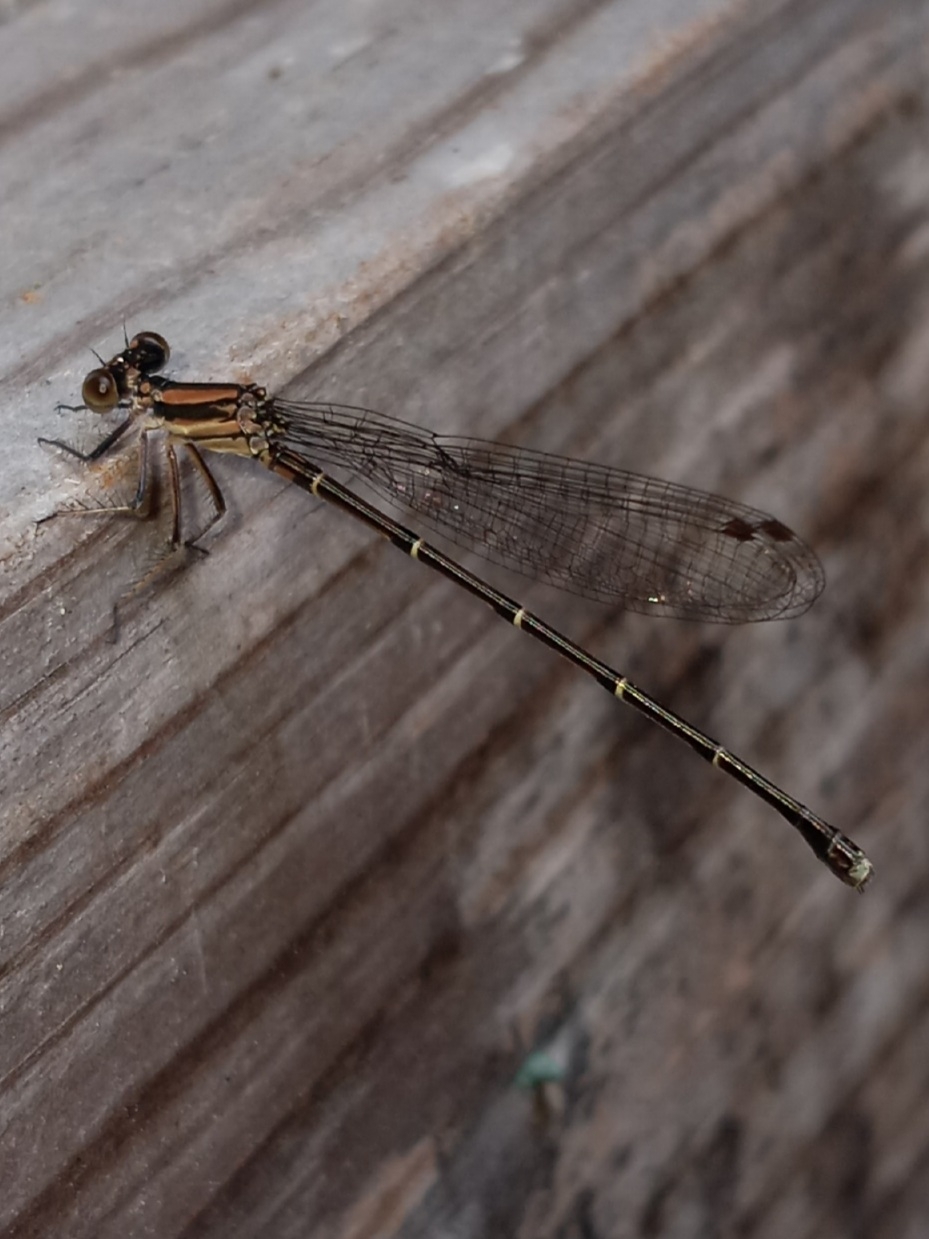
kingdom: Animalia
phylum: Arthropoda
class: Insecta
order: Odonata
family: Coenagrionidae
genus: Argia
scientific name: Argia tibialis
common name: Blue-tipped dancer
